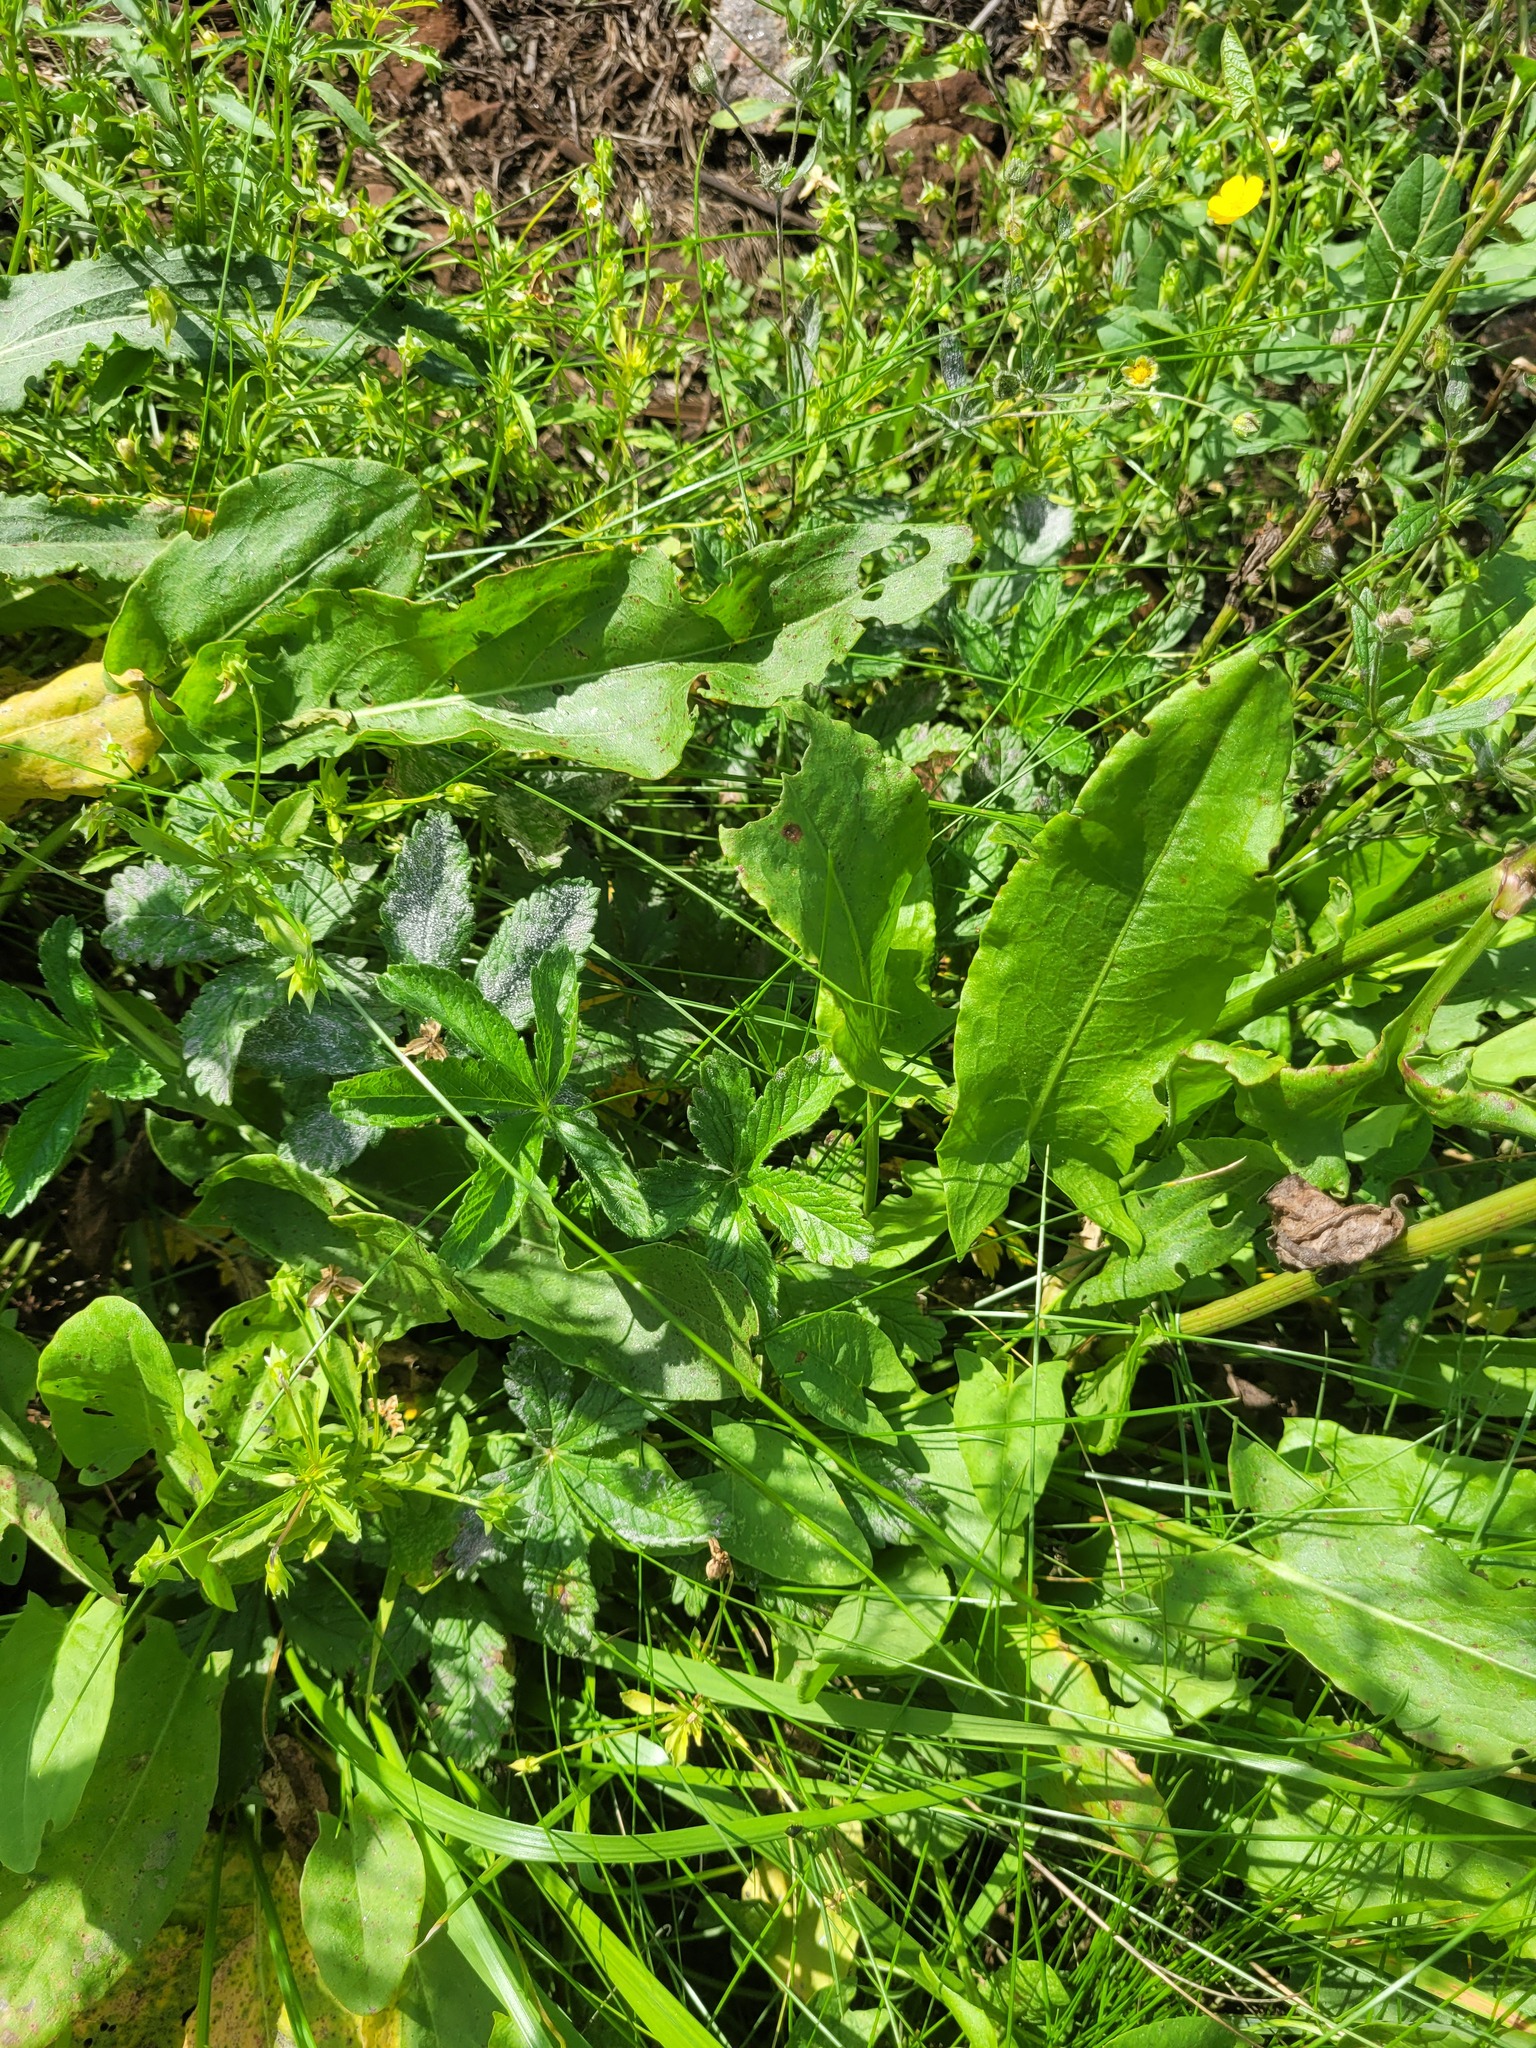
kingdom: Plantae
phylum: Tracheophyta
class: Magnoliopsida
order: Rosales
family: Rosaceae
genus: Potentilla
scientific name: Potentilla thuringiaca
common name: European cinquefoil
